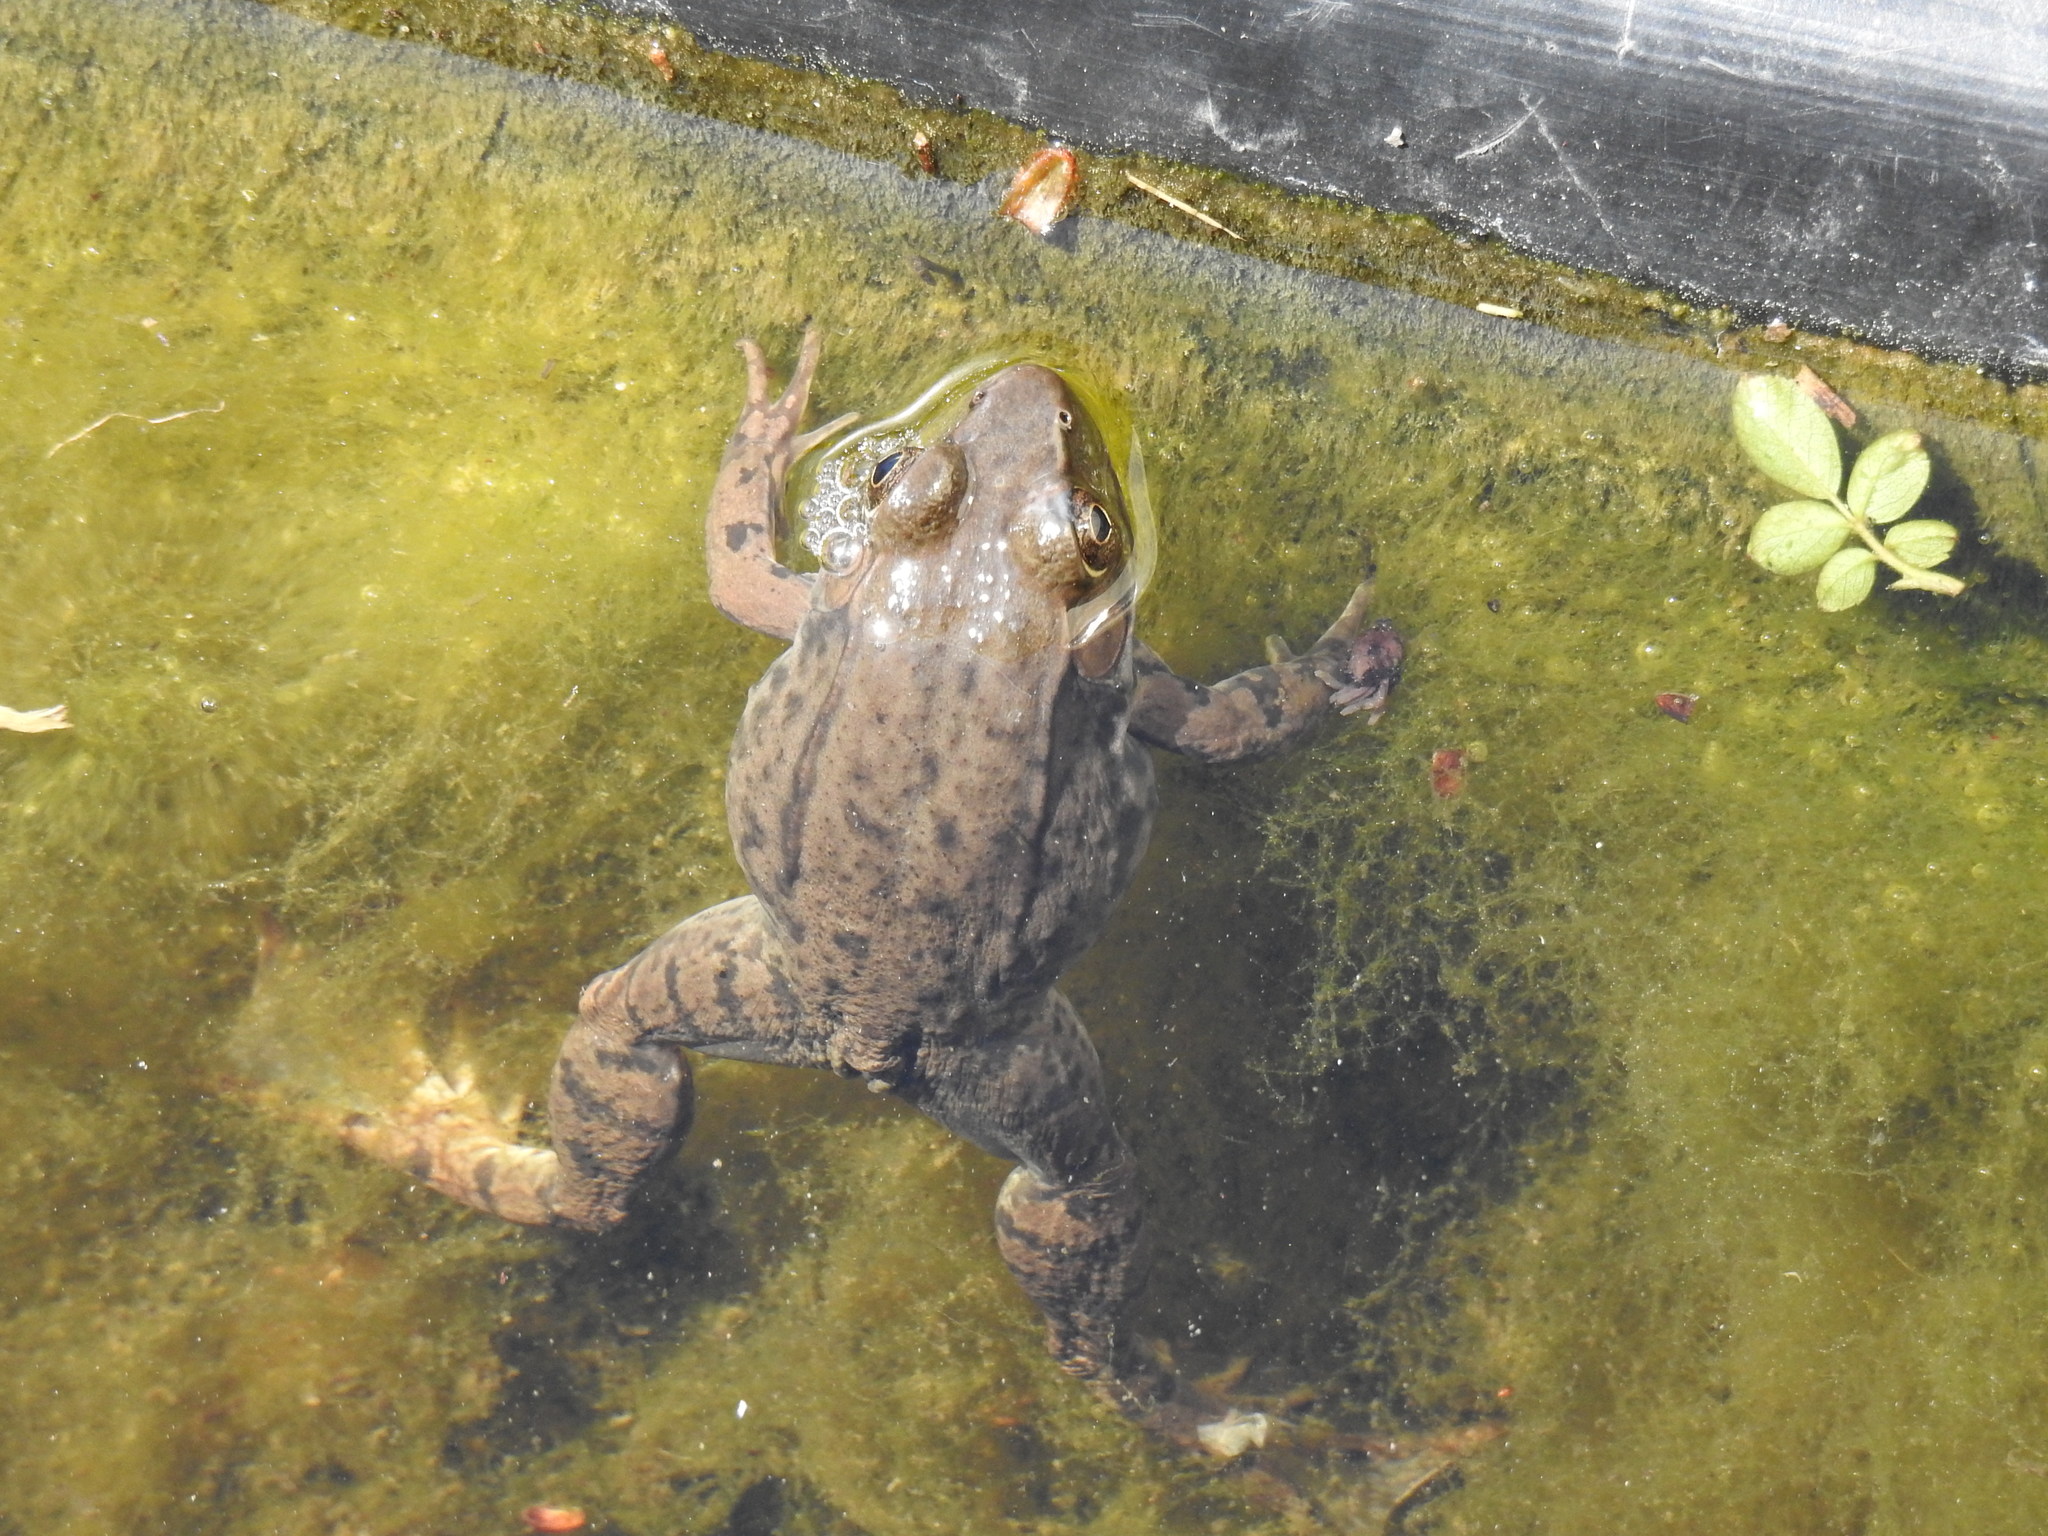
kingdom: Animalia
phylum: Chordata
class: Amphibia
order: Anura
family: Ranidae
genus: Lithobates
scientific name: Lithobates clamitans
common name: Green frog
